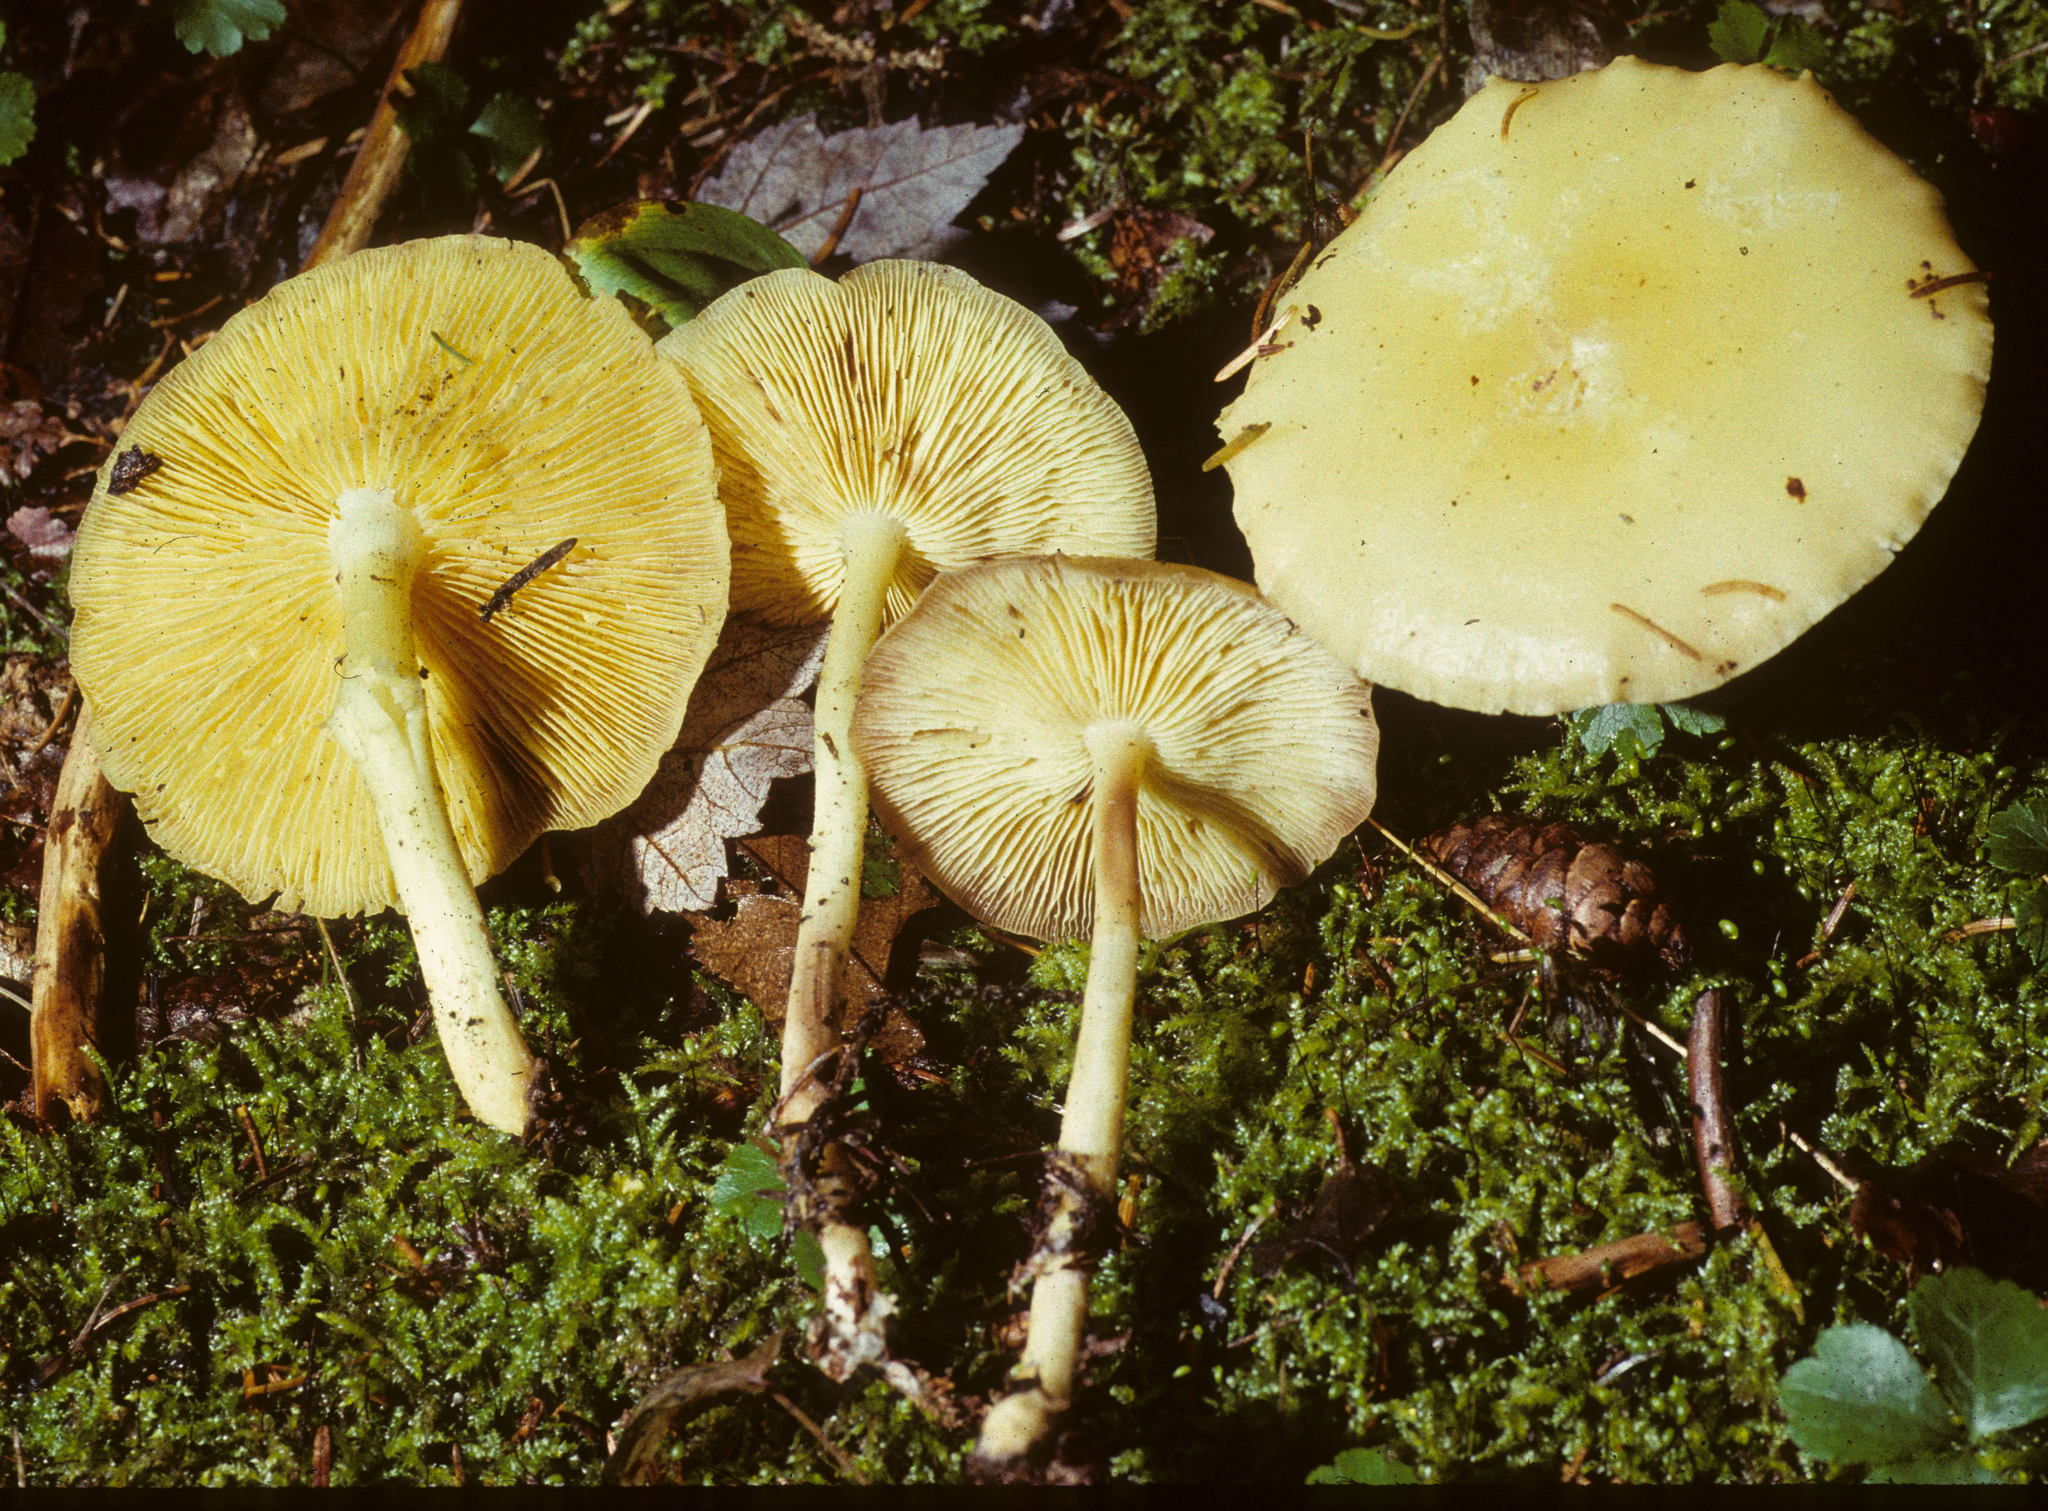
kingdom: Fungi
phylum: Basidiomycota
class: Agaricomycetes
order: Agaricales
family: Omphalotaceae
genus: Rhodocollybia
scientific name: Rhodocollybia maculata
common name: Spotted tough-shank
